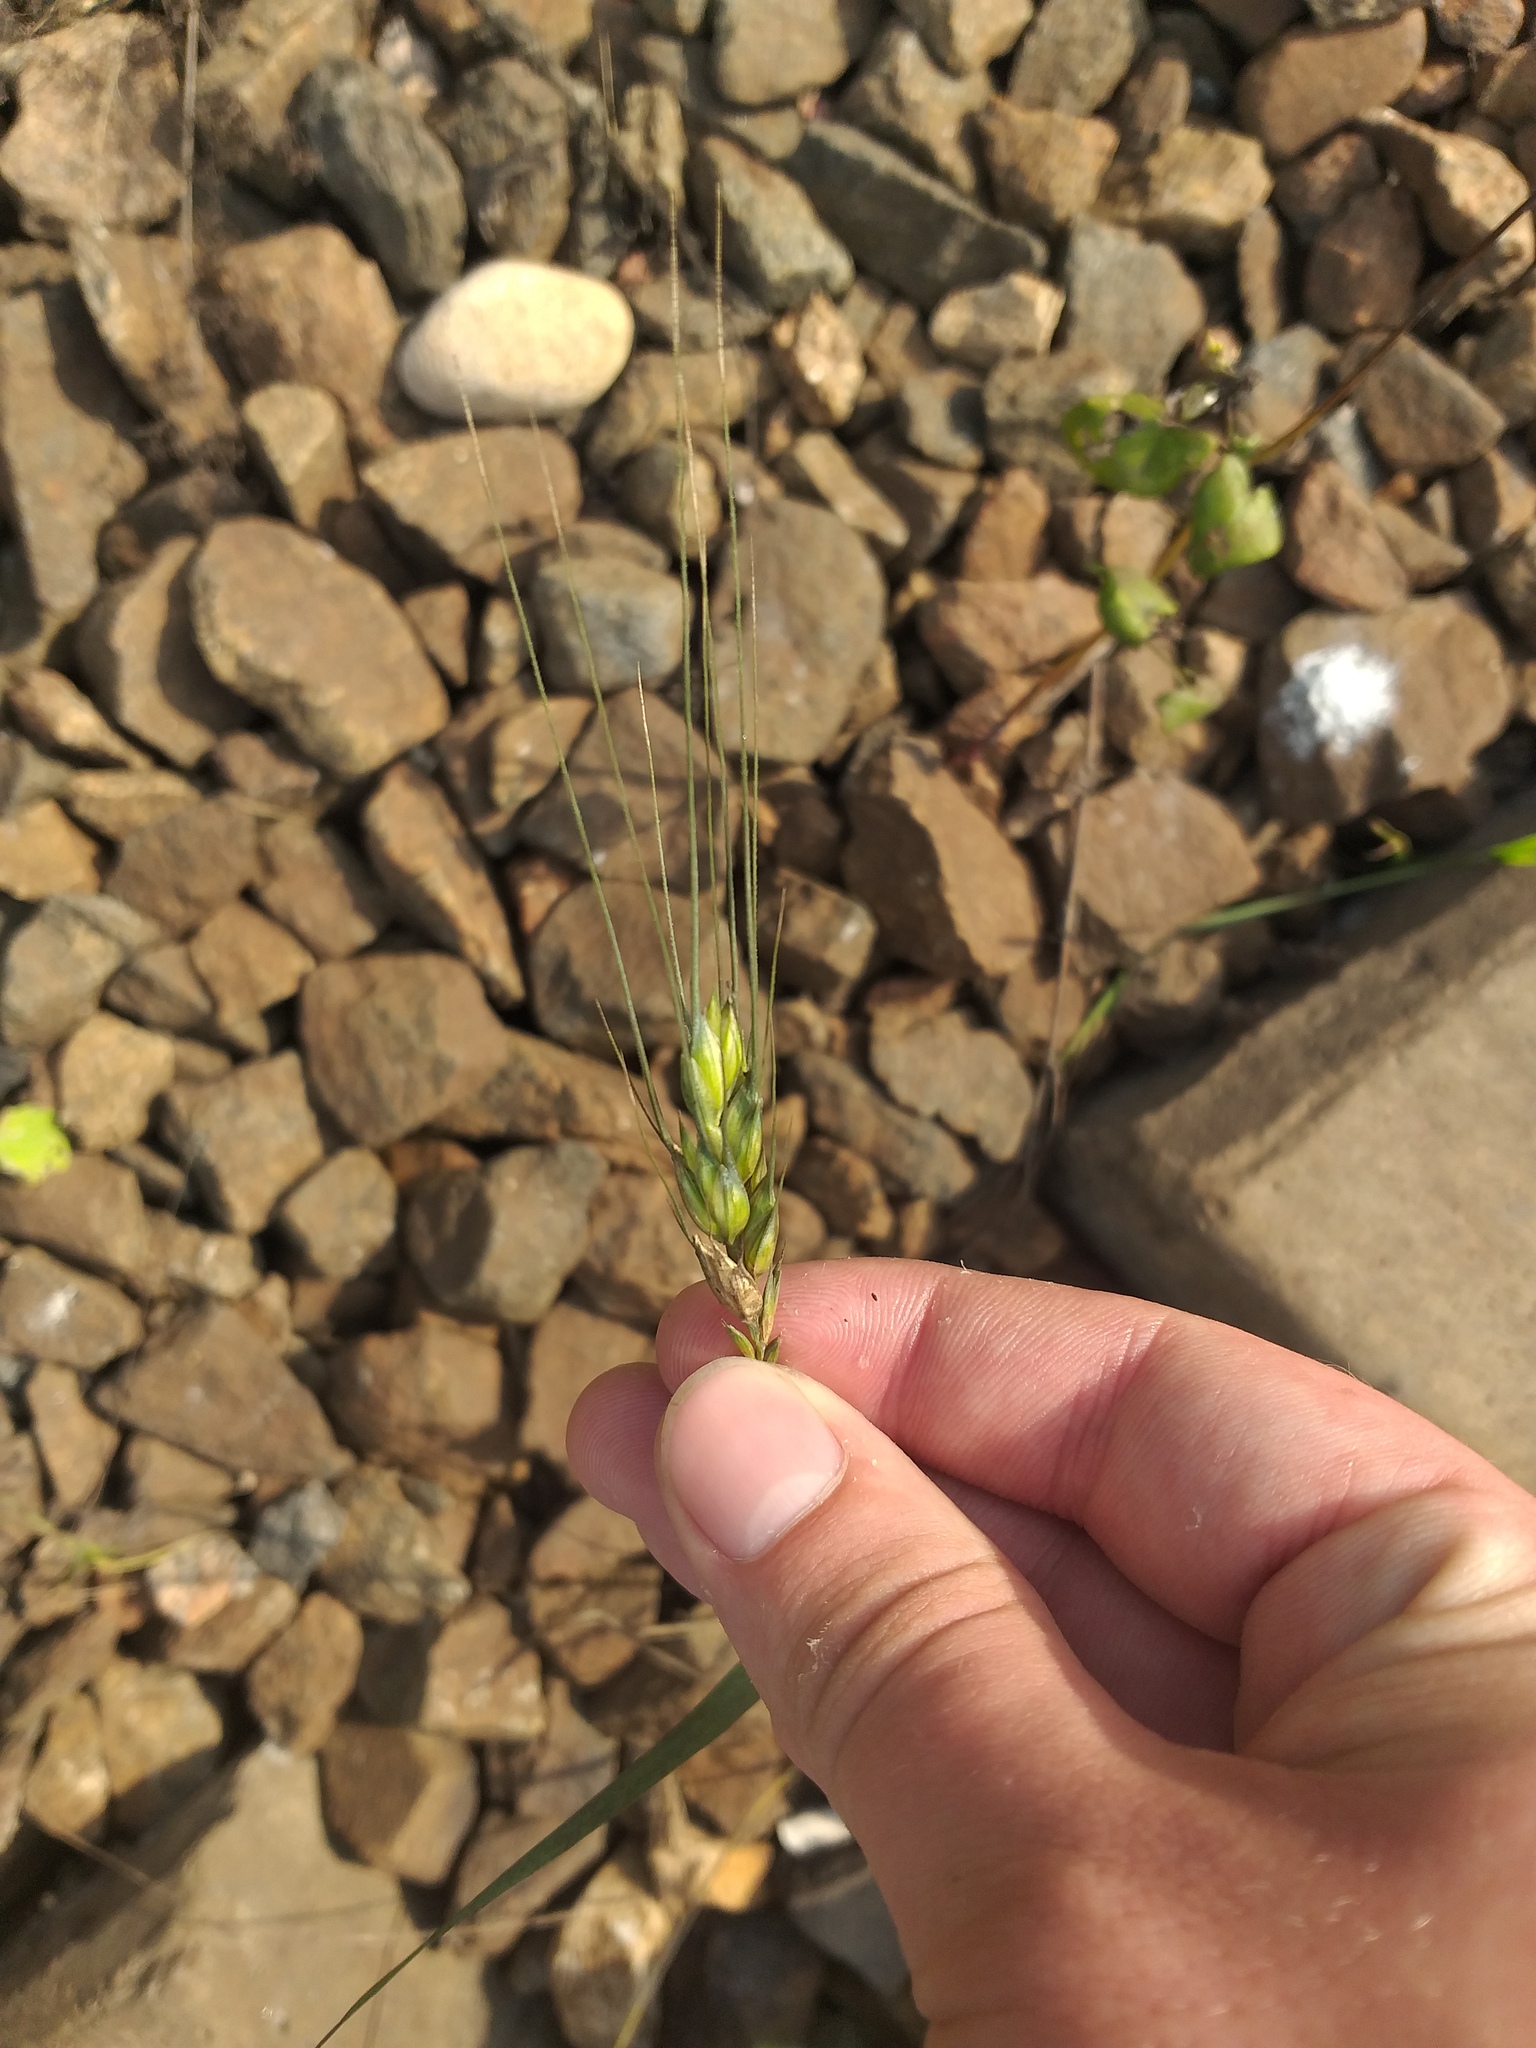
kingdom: Plantae
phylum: Tracheophyta
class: Liliopsida
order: Poales
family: Poaceae
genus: Triticum
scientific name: Triticum aestivum
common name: Common wheat
